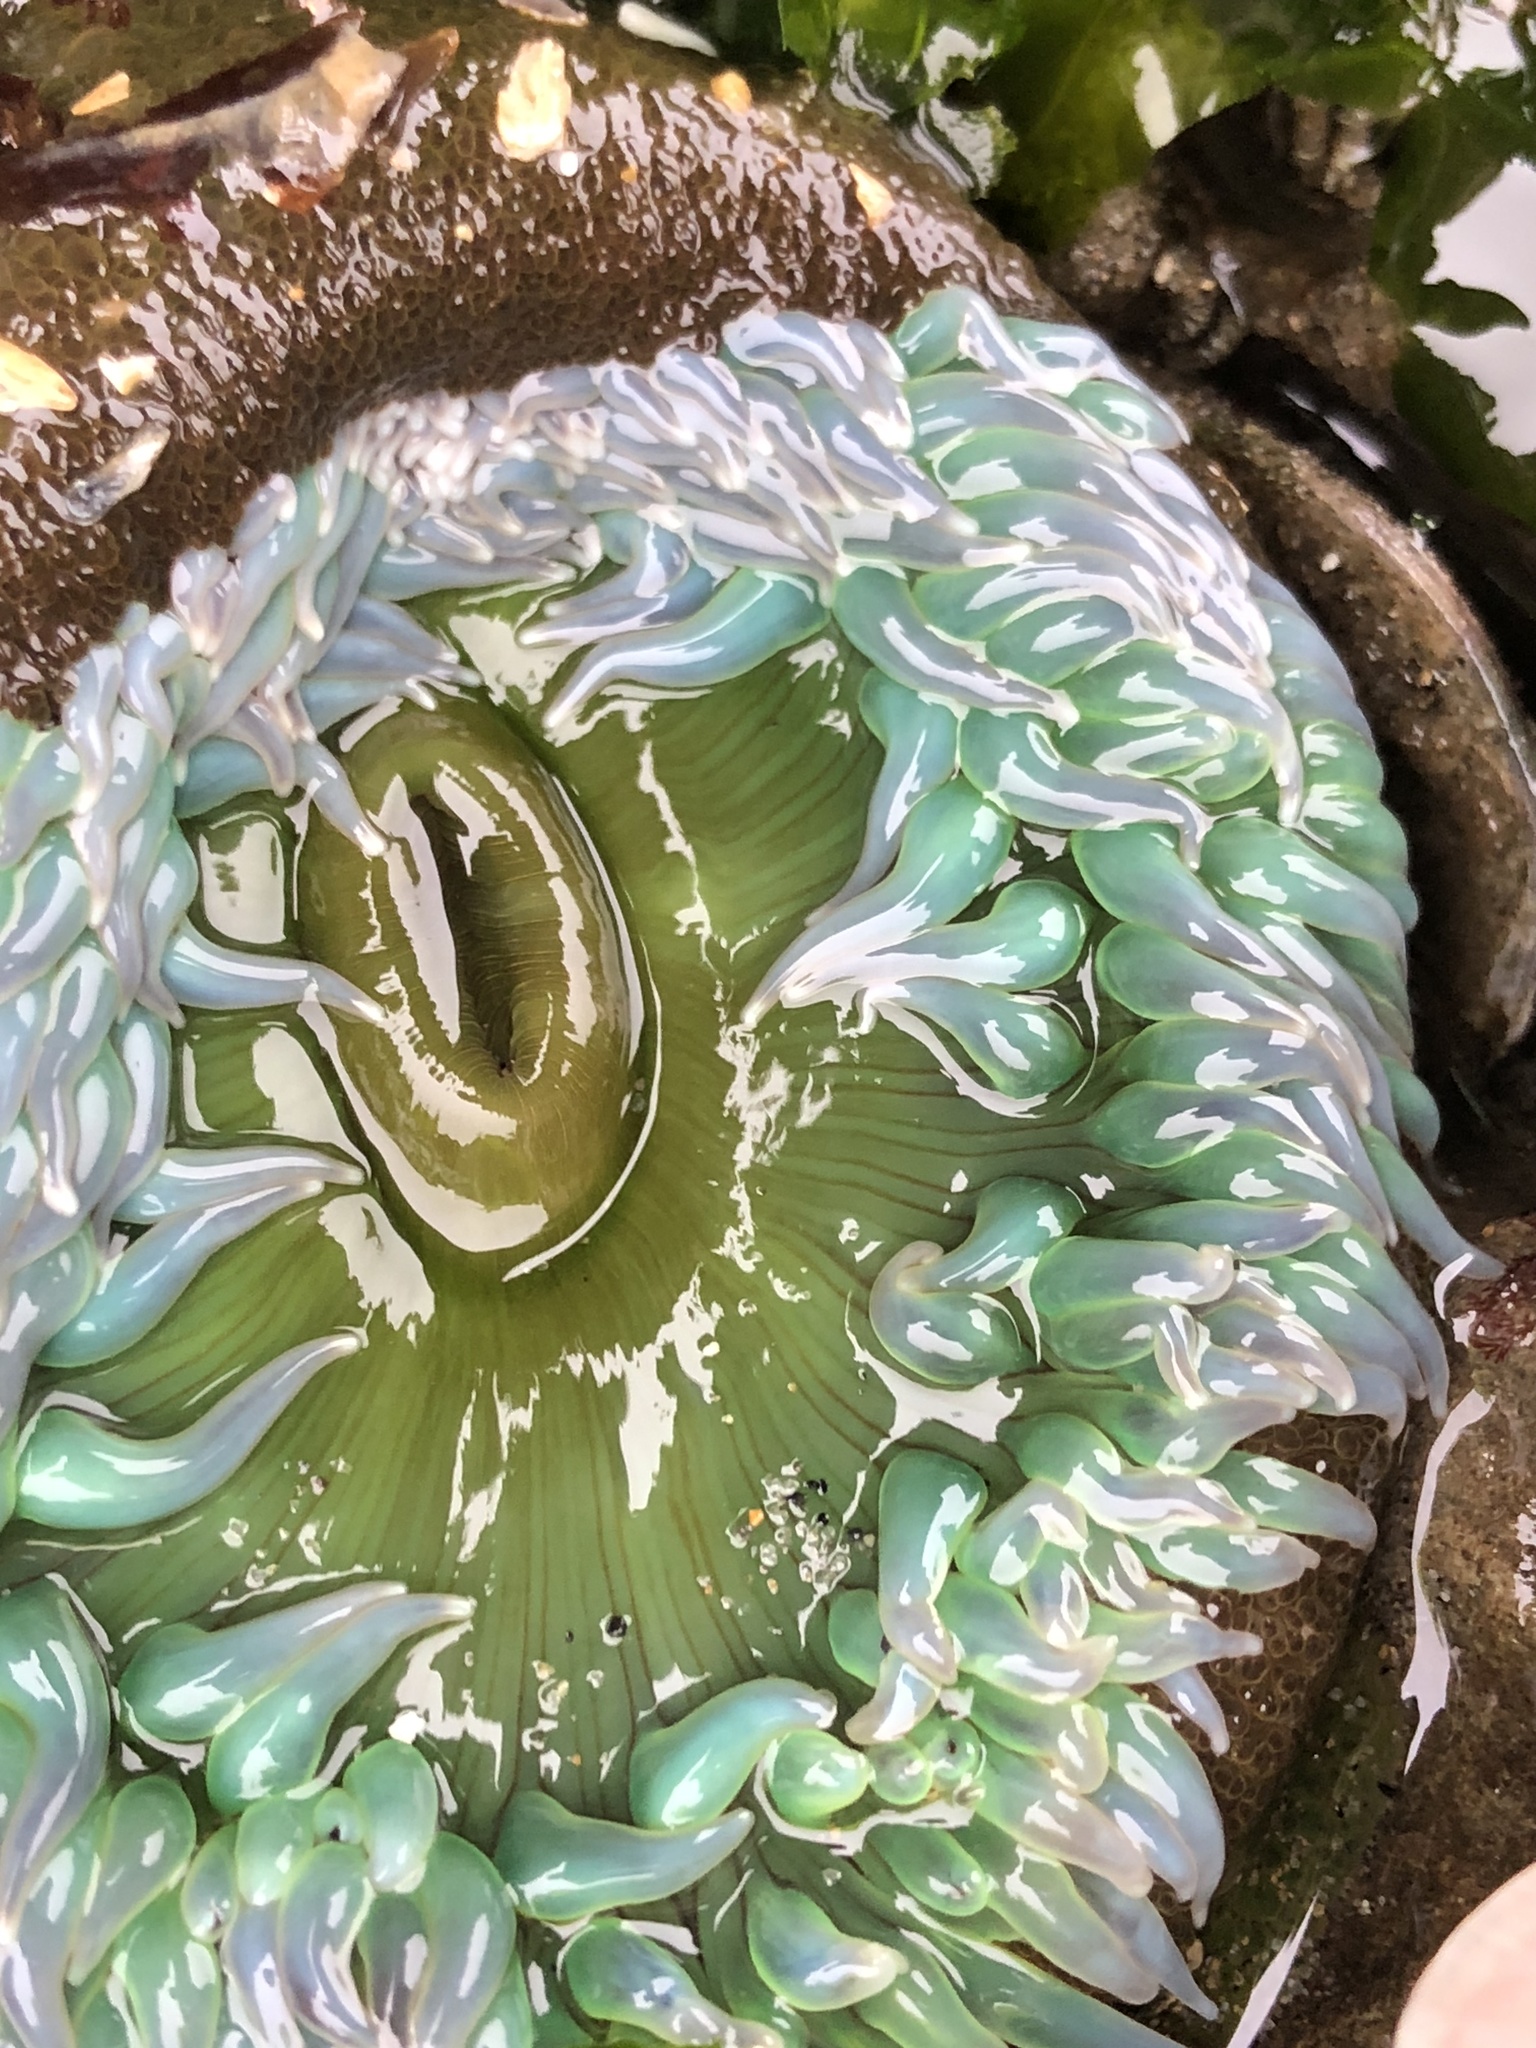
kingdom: Animalia
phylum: Cnidaria
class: Anthozoa
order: Actiniaria
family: Actiniidae
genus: Anthopleura
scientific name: Anthopleura xanthogrammica
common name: Giant green anemone
